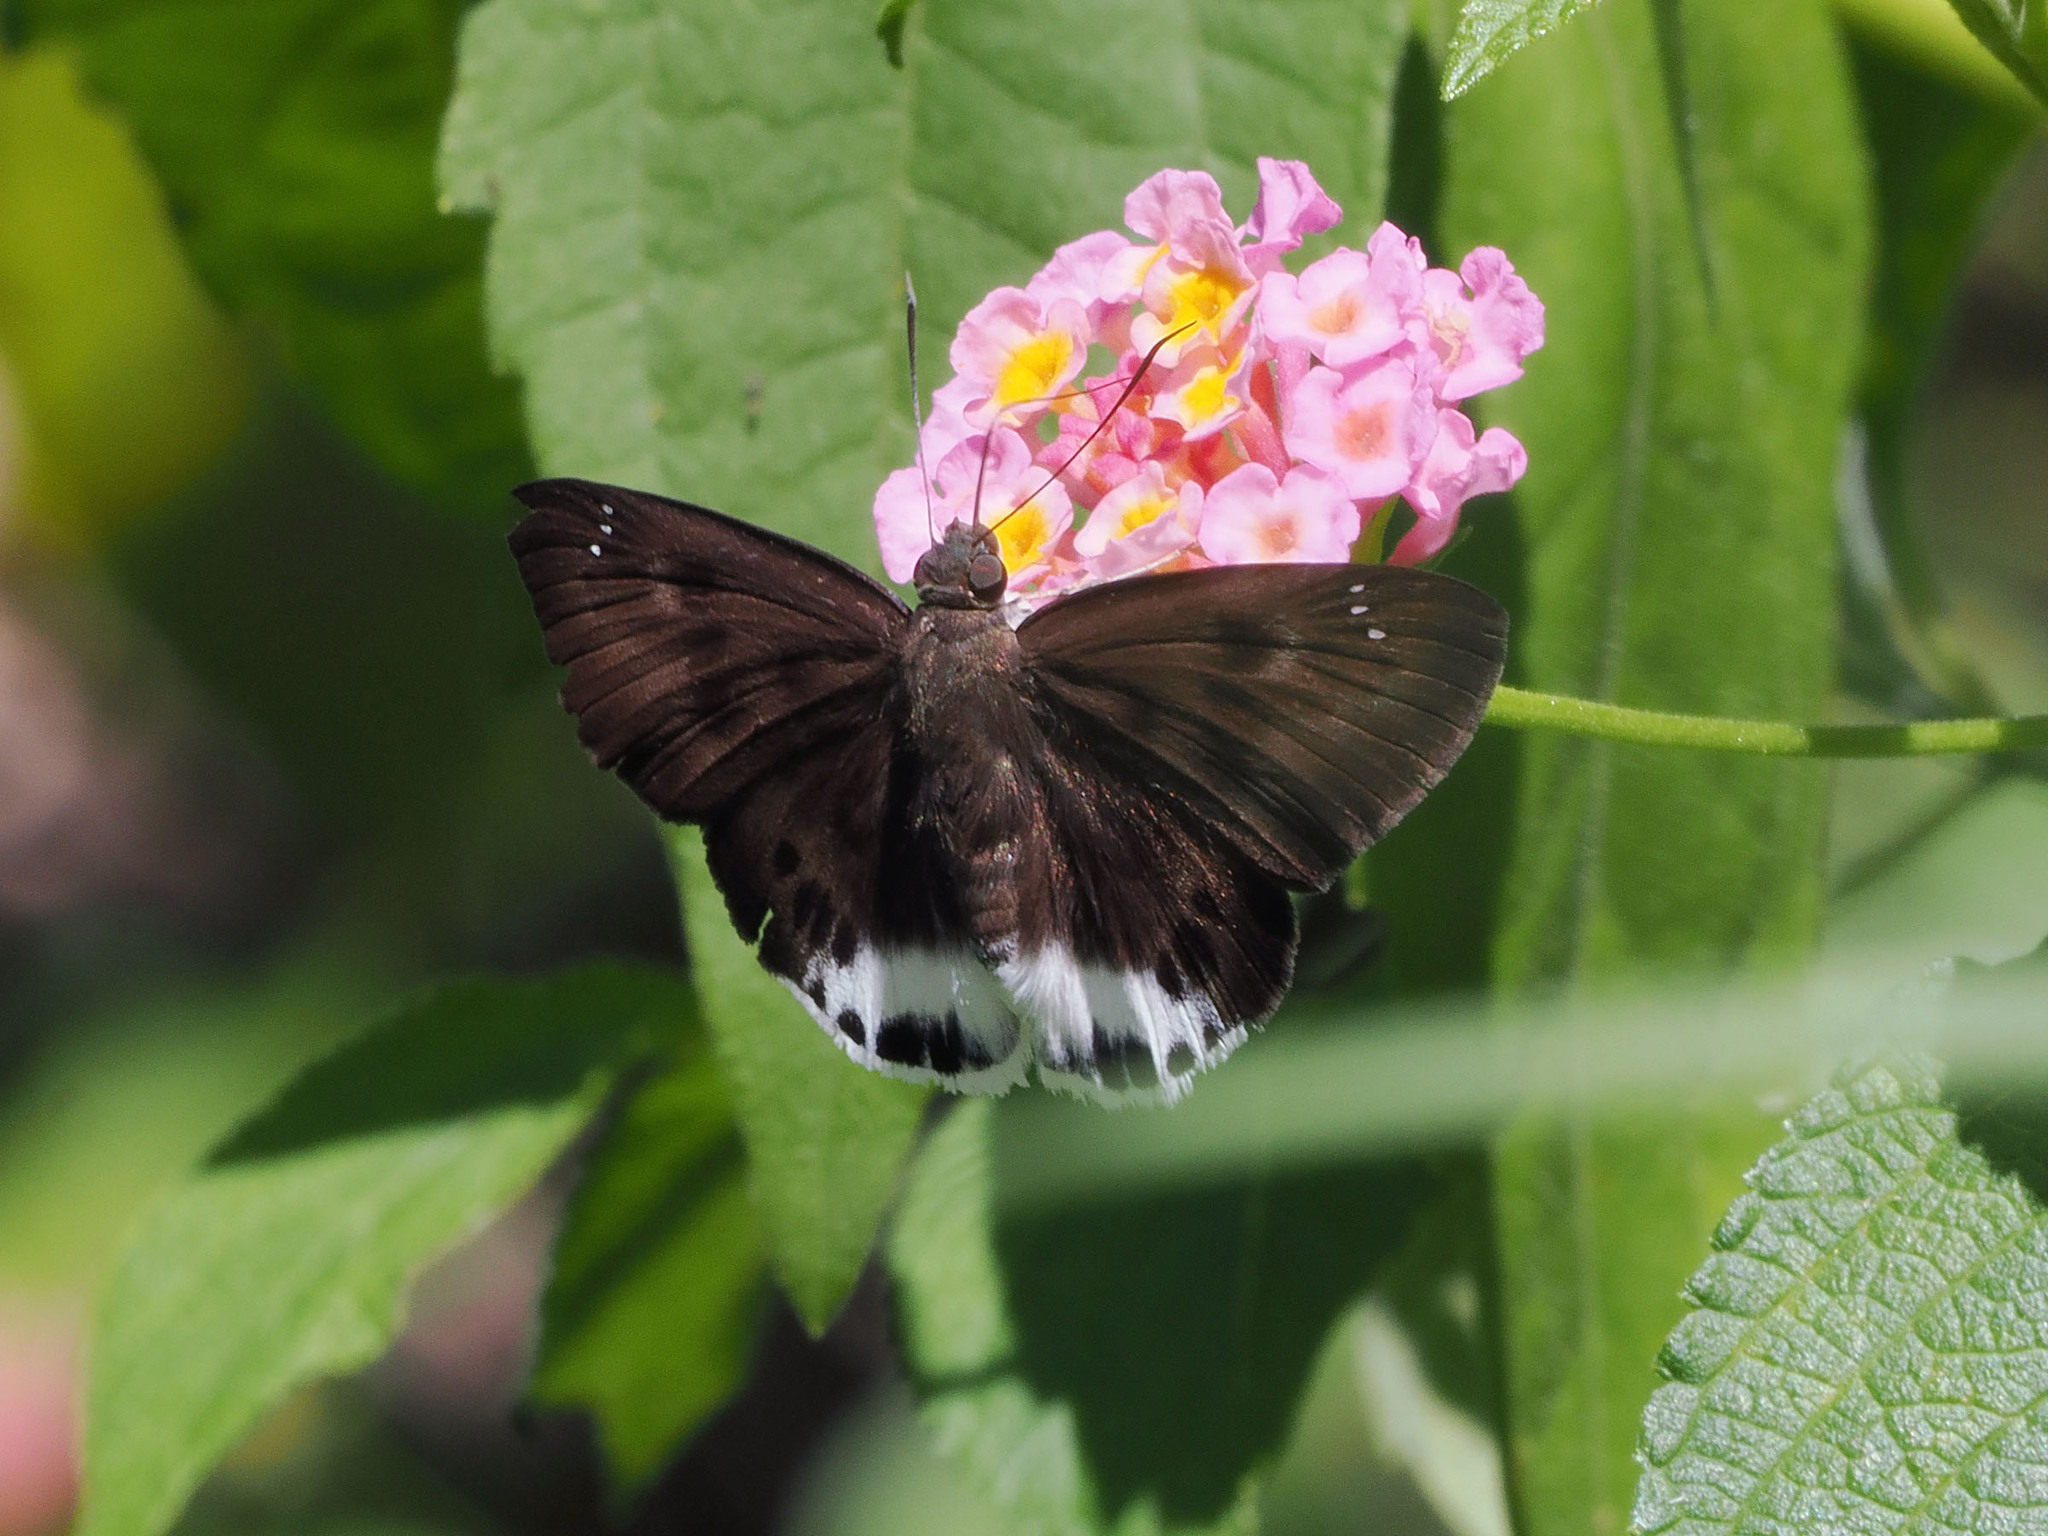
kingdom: Animalia
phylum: Arthropoda
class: Insecta
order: Lepidoptera
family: Hesperiidae
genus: Tagiades
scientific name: Tagiades gana
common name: Suffused snow flat
